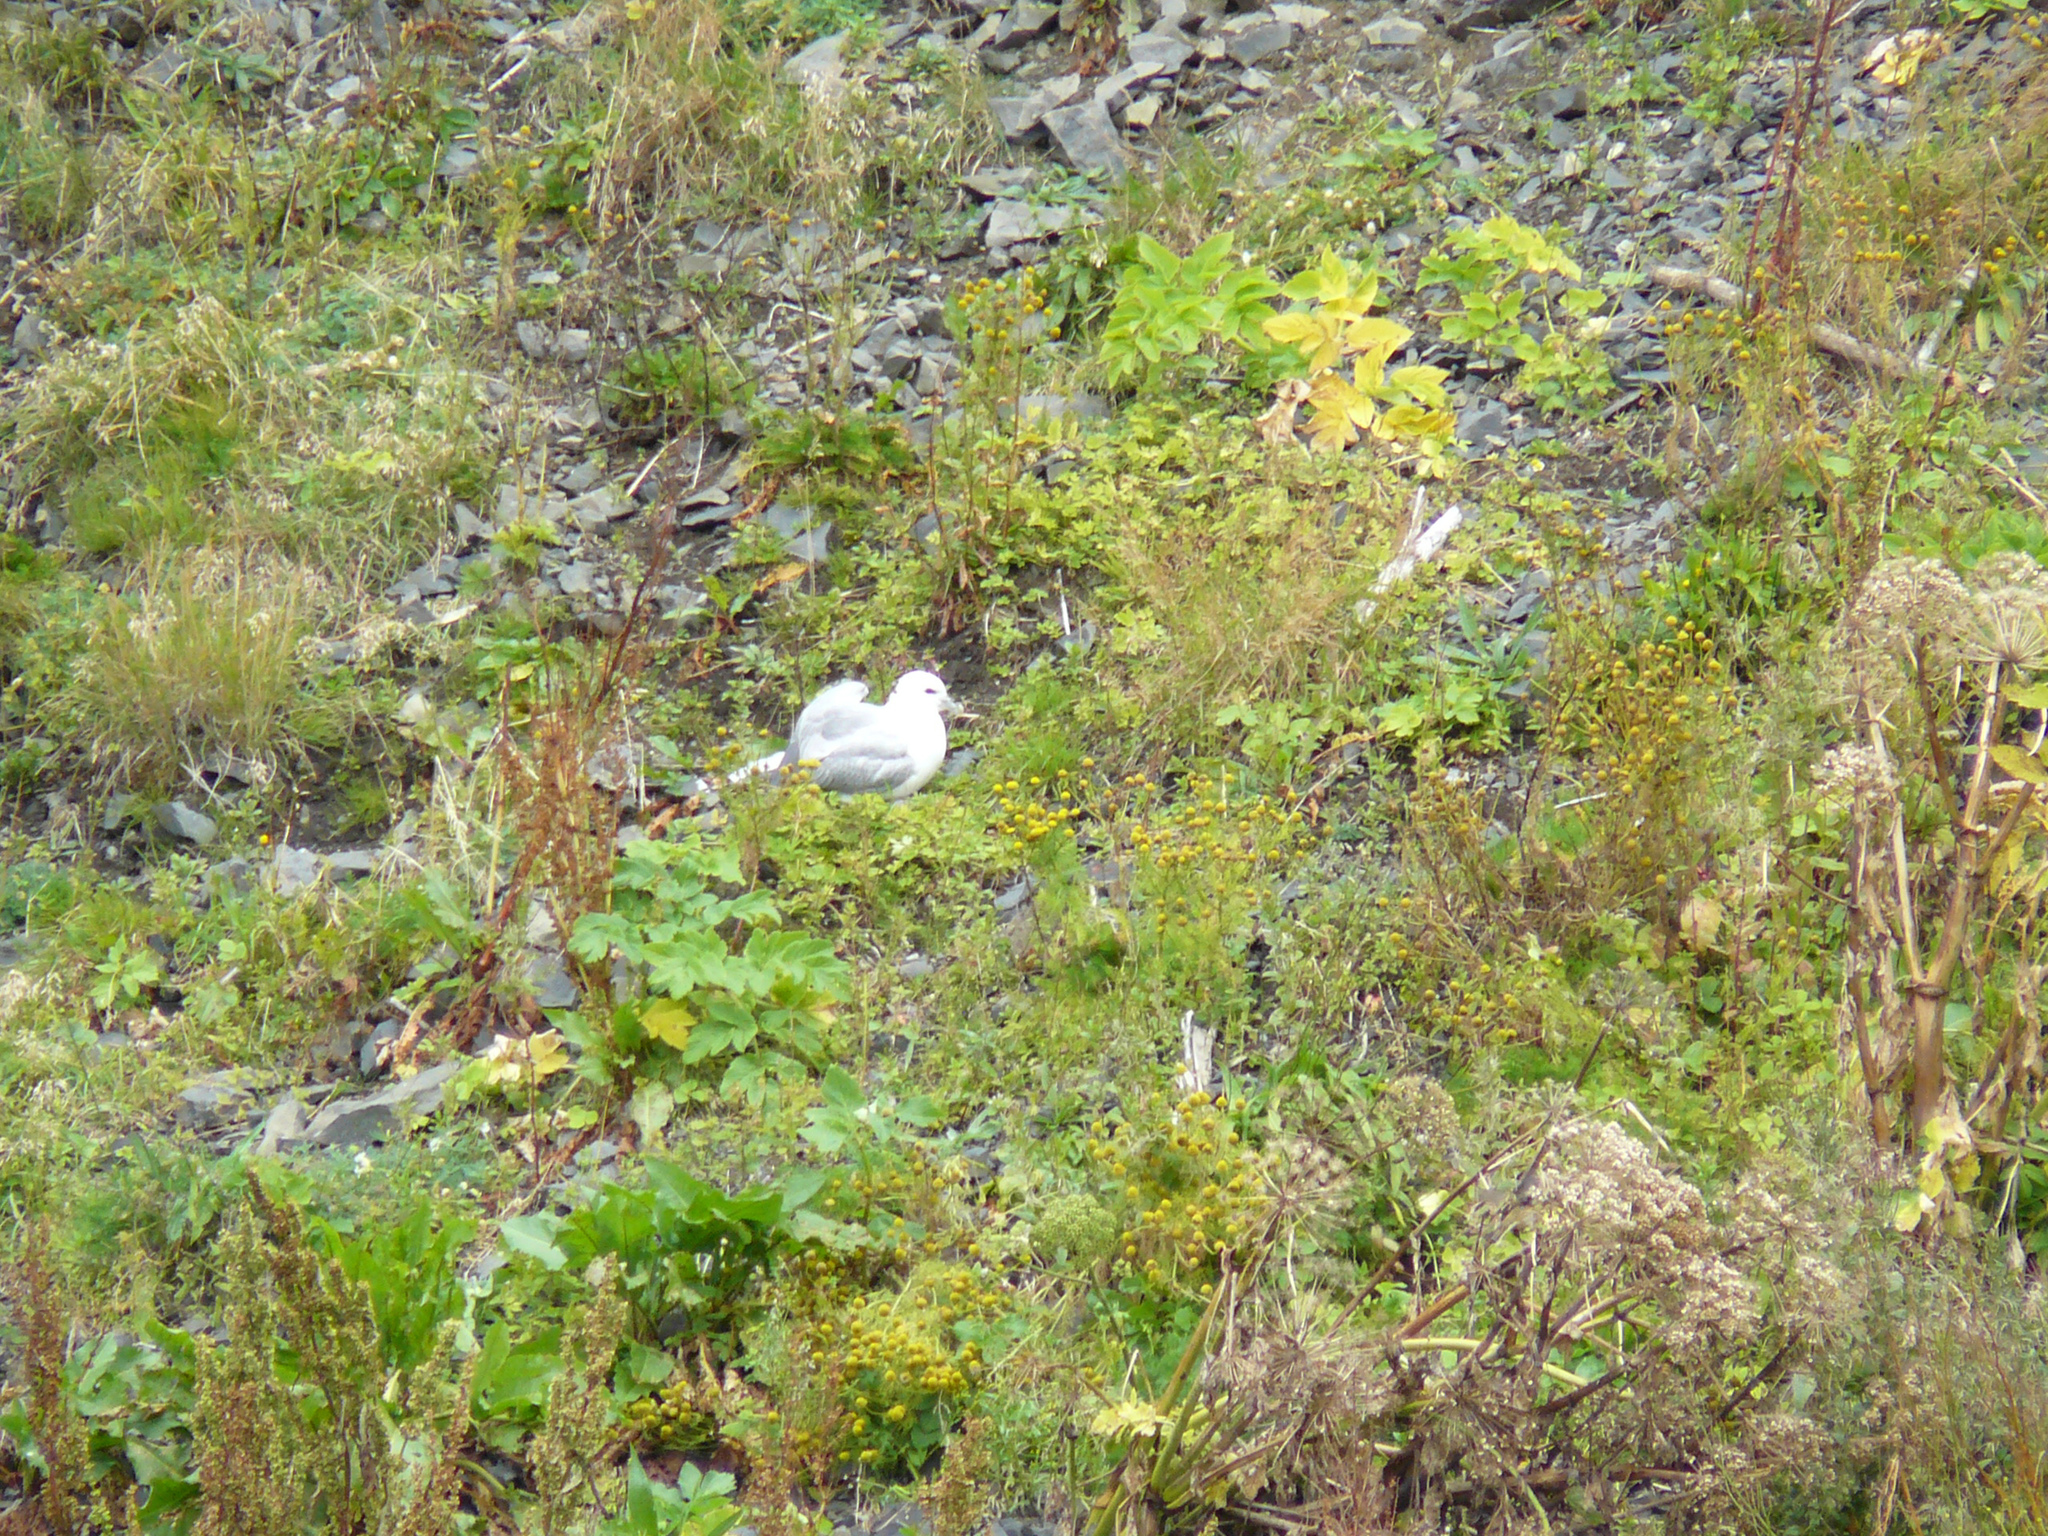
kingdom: Animalia
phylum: Chordata
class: Aves
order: Procellariiformes
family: Procellariidae
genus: Fulmarus
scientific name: Fulmarus glacialis
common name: Northern fulmar
